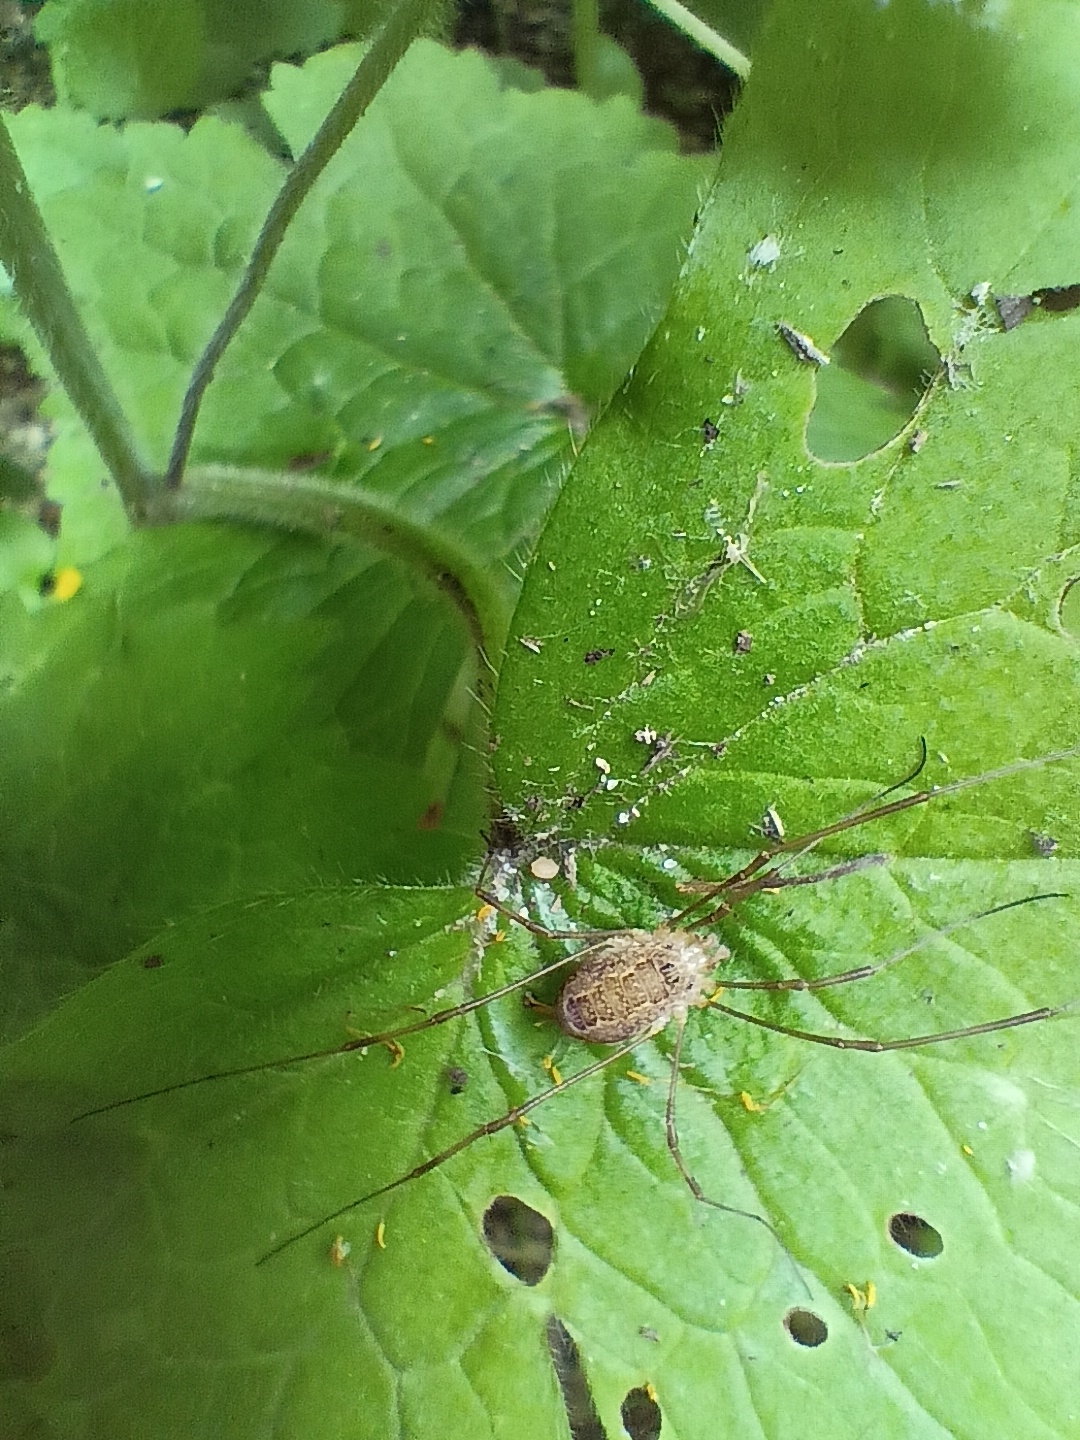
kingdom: Animalia
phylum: Arthropoda
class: Arachnida
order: Opiliones
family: Phalangiidae
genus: Rilaena
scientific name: Rilaena triangularis
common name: Spring harvestman
